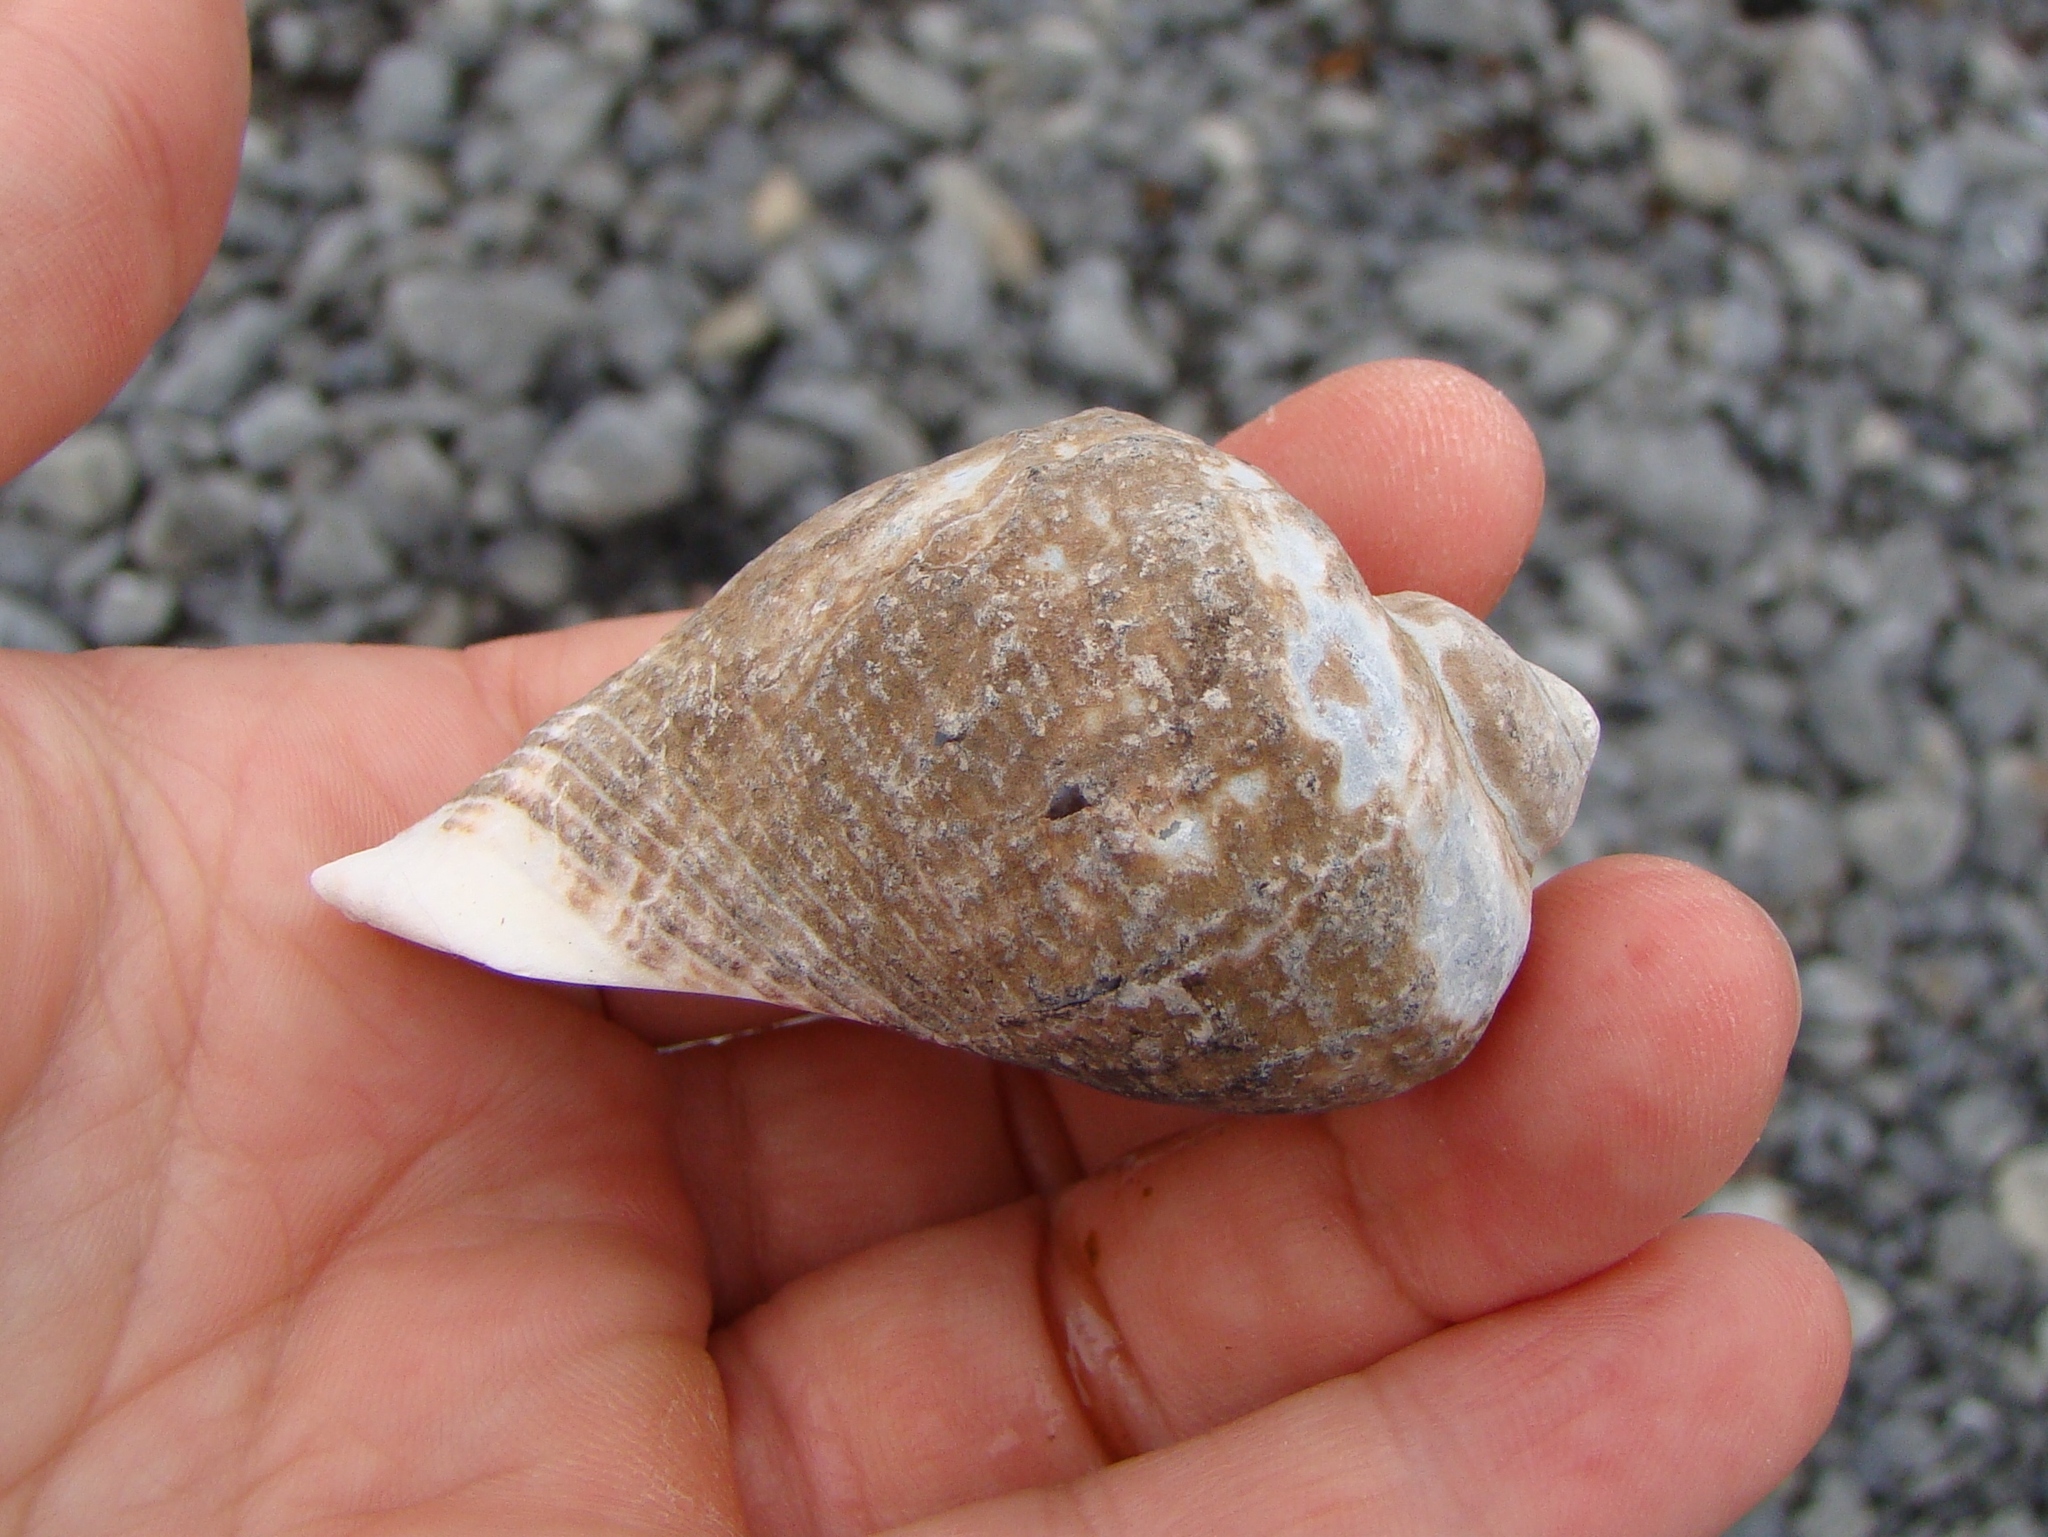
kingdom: Animalia
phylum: Mollusca
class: Gastropoda
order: Neogastropoda
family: Muricidae
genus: Haustrum
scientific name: Haustrum haustorium
